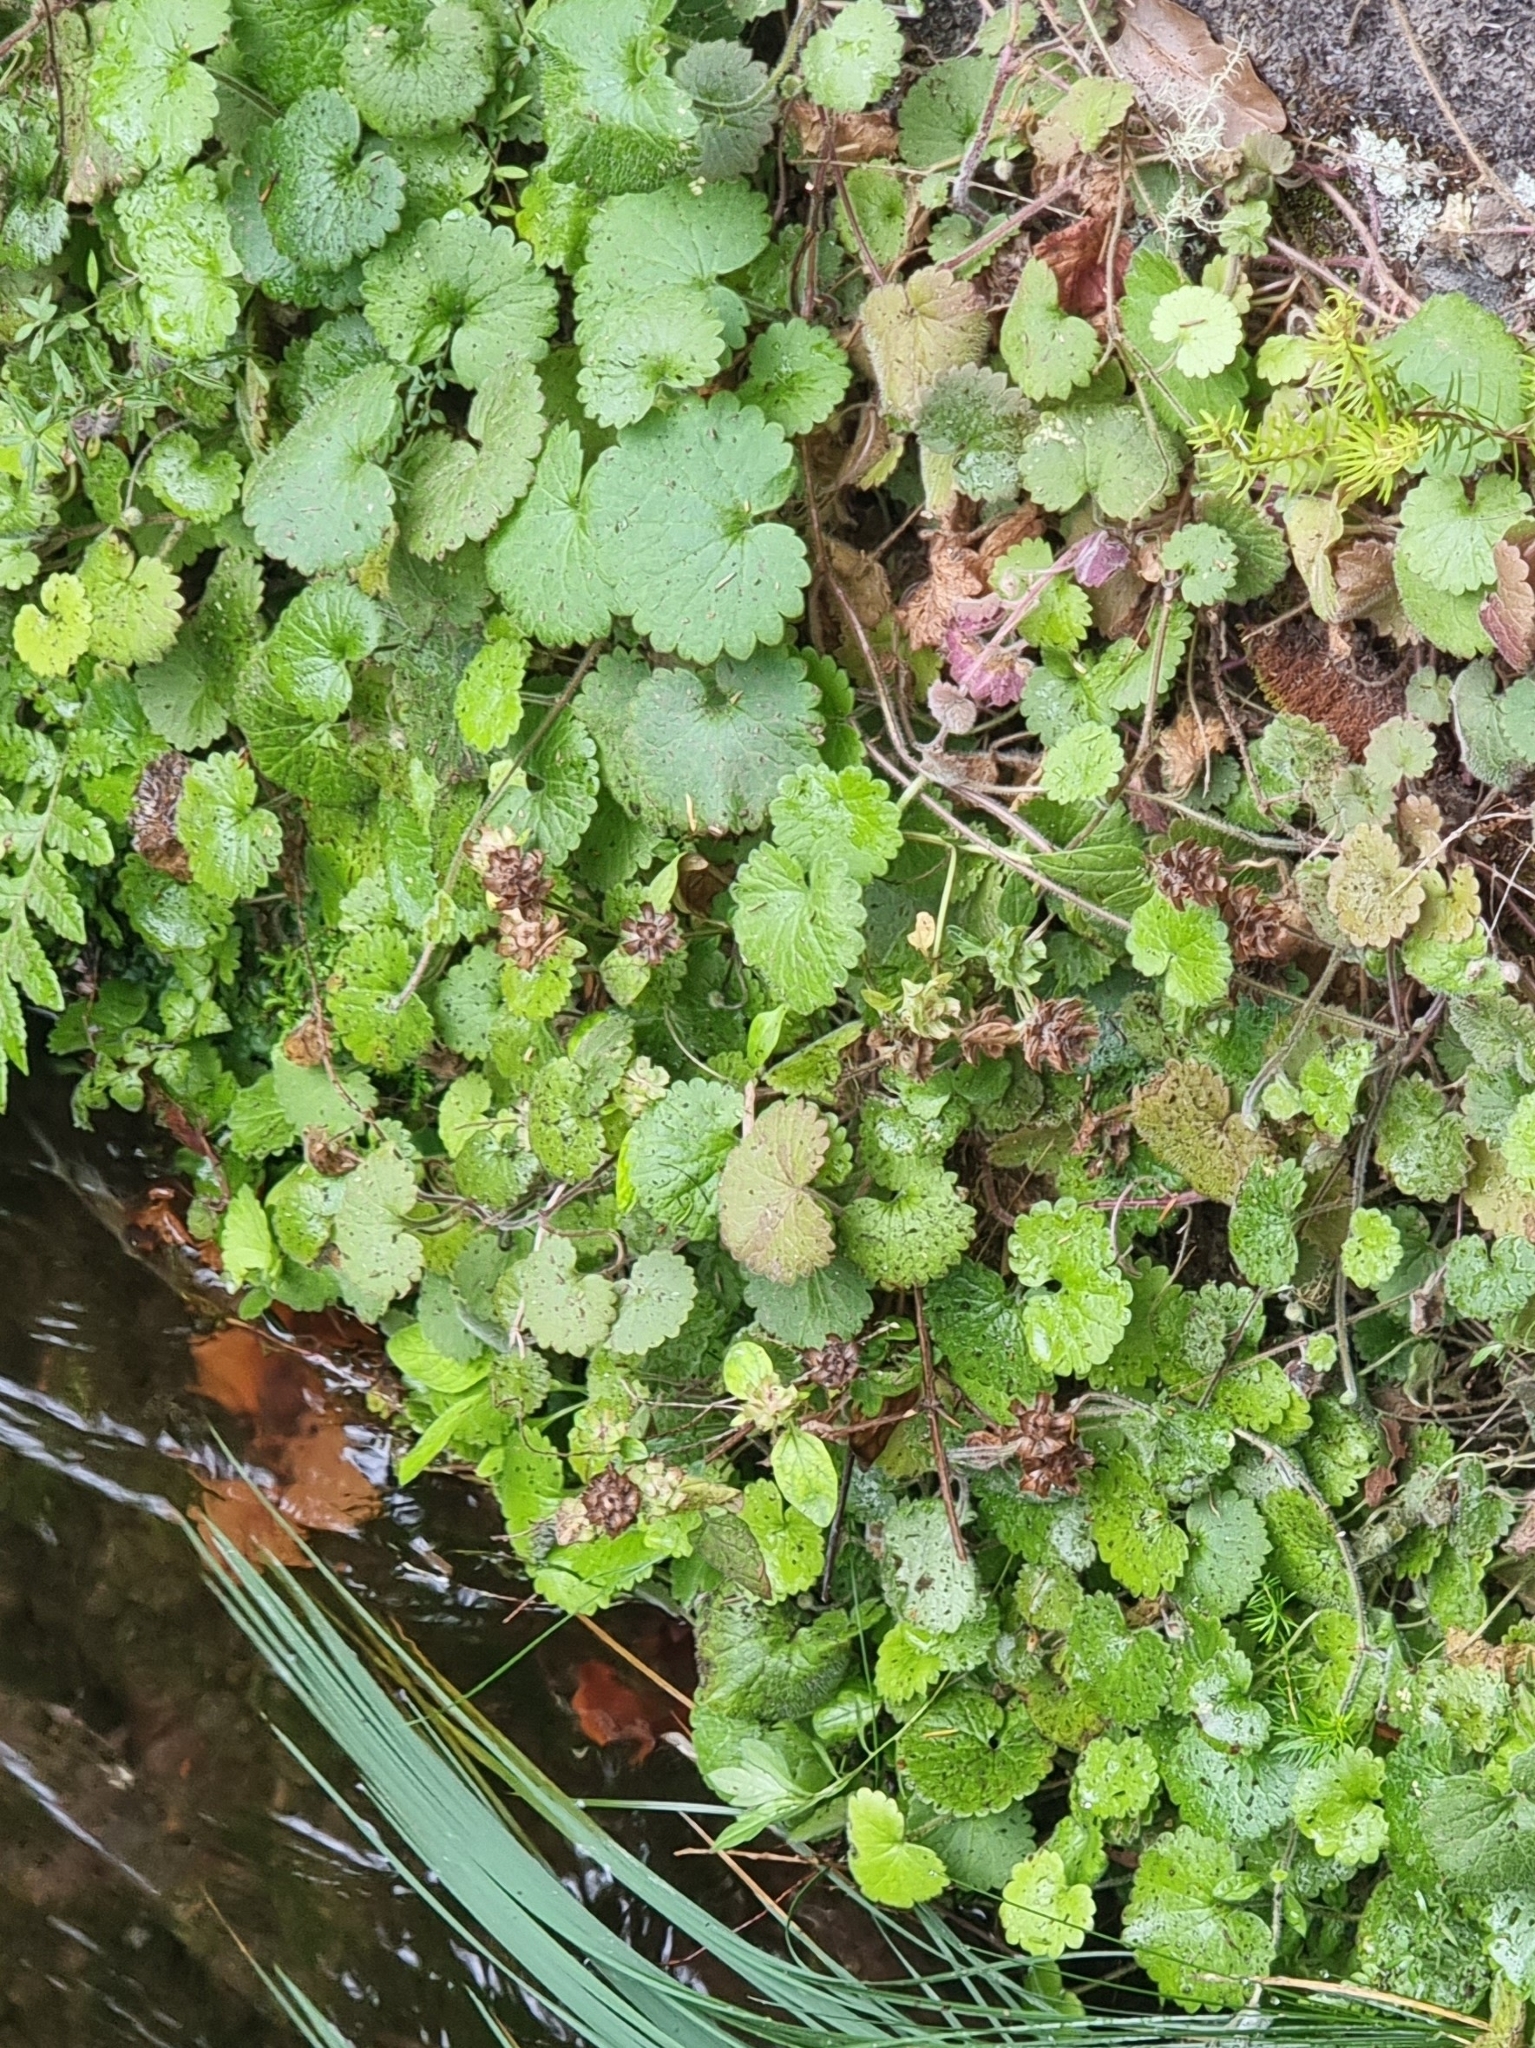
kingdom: Plantae
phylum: Tracheophyta
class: Magnoliopsida
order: Lamiales
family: Lamiaceae
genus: Prunella
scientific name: Prunella vulgaris
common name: Heal-all
